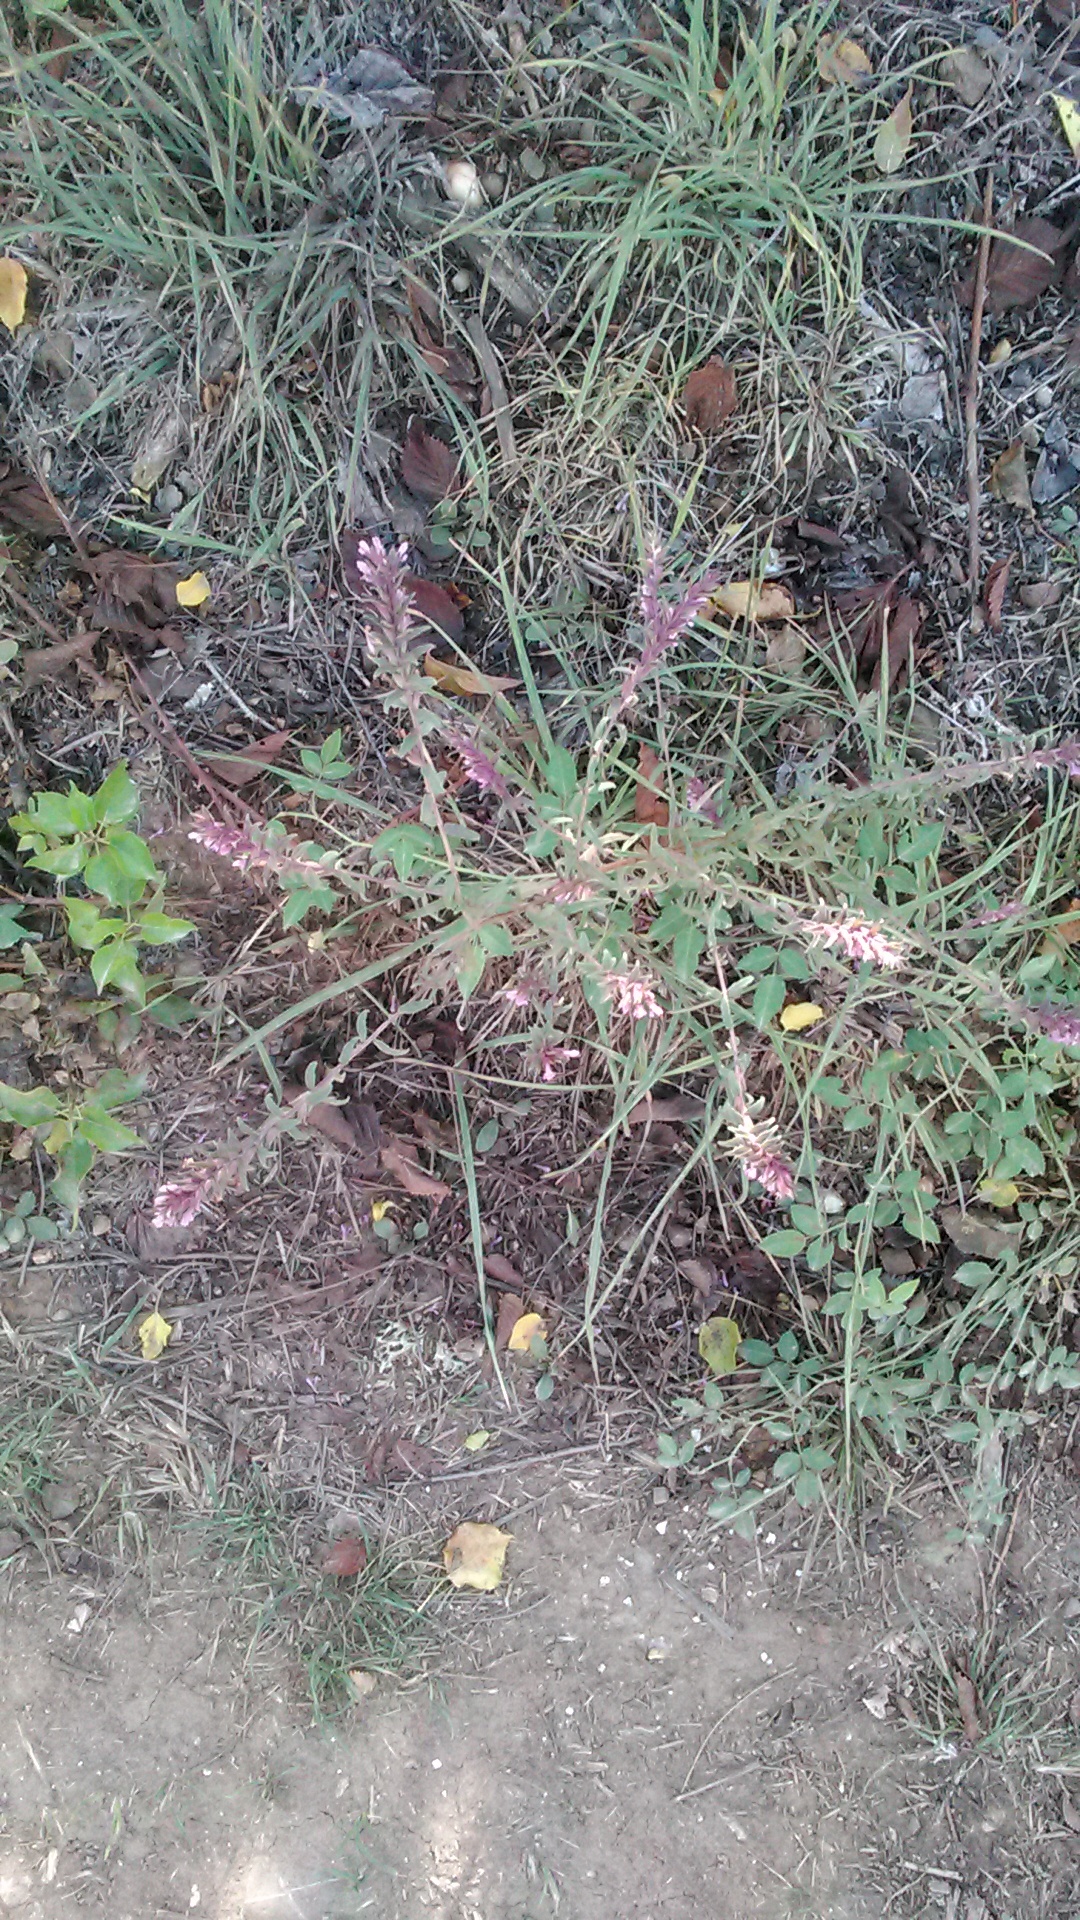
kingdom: Plantae
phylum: Tracheophyta
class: Magnoliopsida
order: Lamiales
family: Orobanchaceae
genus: Melampyrum
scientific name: Melampyrum arvense
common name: Field cow-wheat
